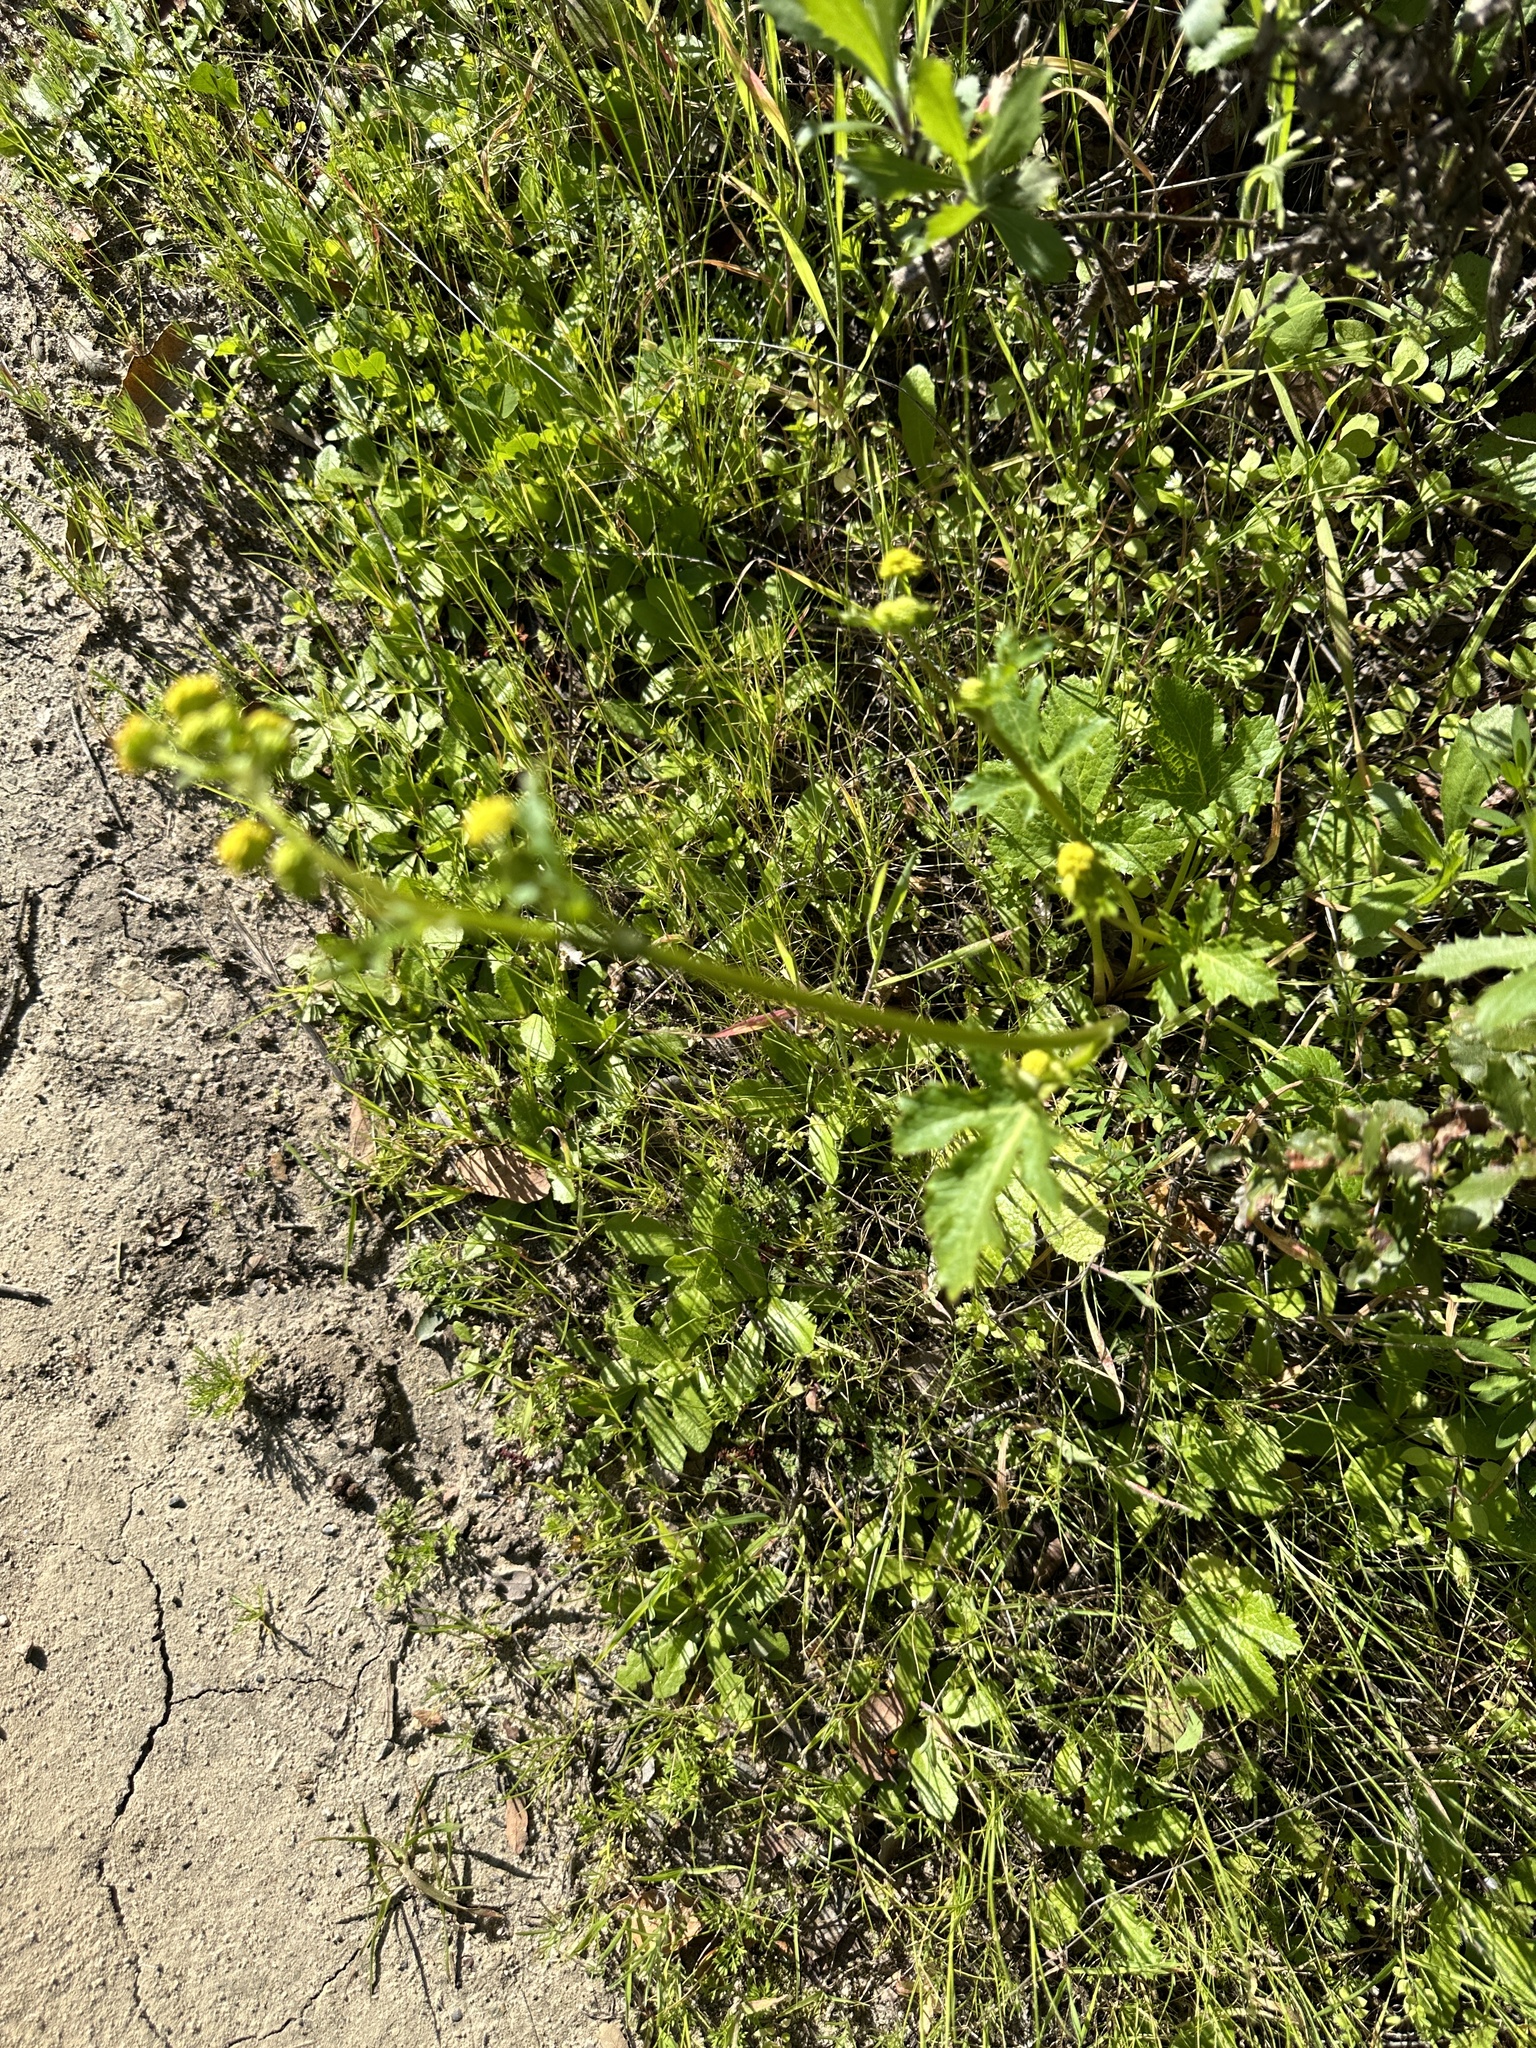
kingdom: Plantae
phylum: Tracheophyta
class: Magnoliopsida
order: Apiales
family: Apiaceae
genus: Sanicula
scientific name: Sanicula crassicaulis
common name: Western snakeroot
